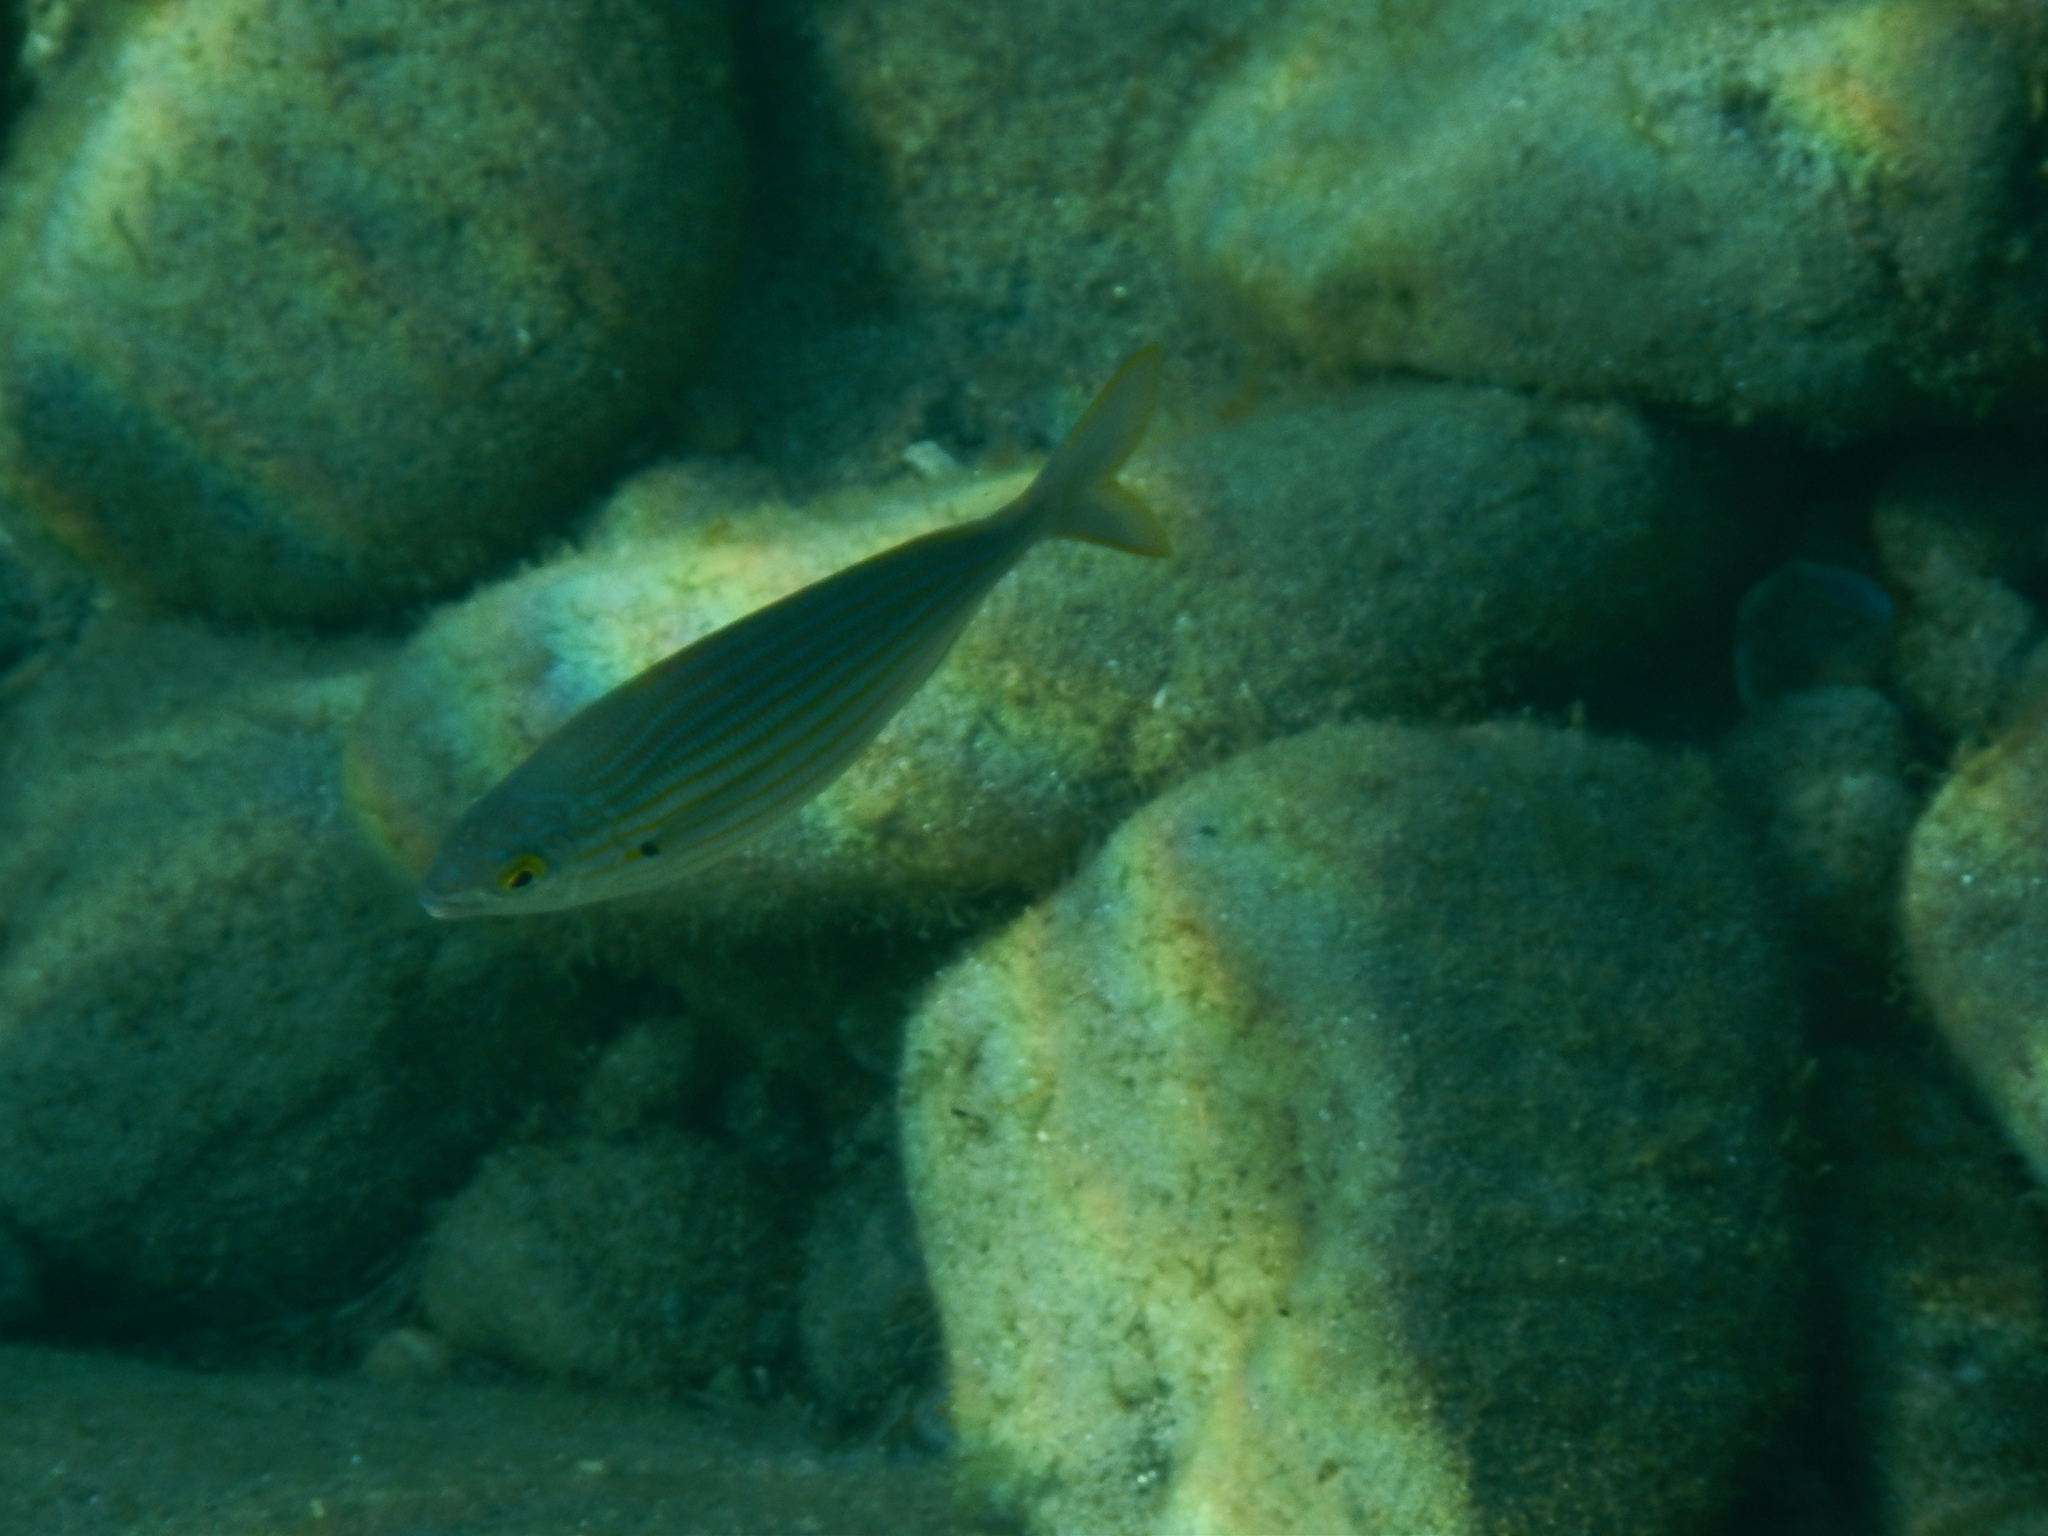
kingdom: Animalia
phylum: Chordata
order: Perciformes
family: Sparidae
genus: Sarpa
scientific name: Sarpa salpa
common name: Salema
